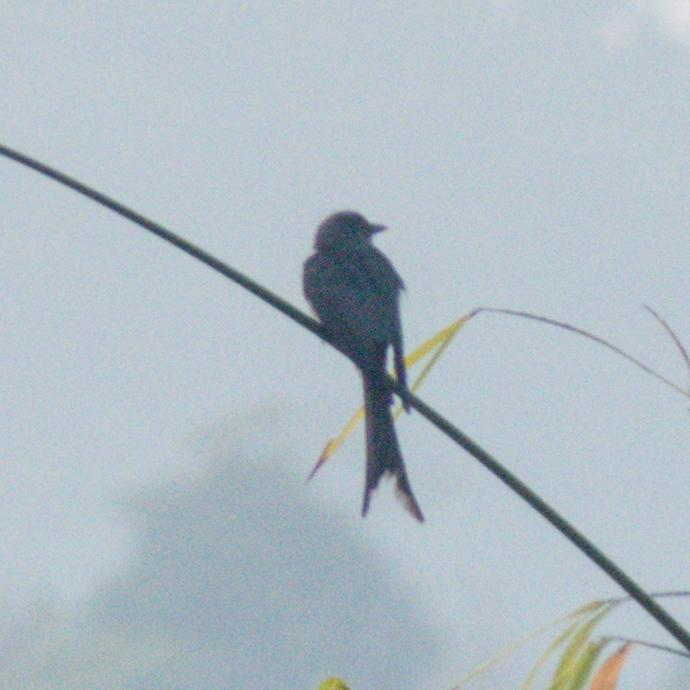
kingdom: Animalia
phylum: Chordata
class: Aves
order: Passeriformes
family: Dicruridae
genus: Dicrurus
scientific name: Dicrurus leucophaeus
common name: Ashy drongo
